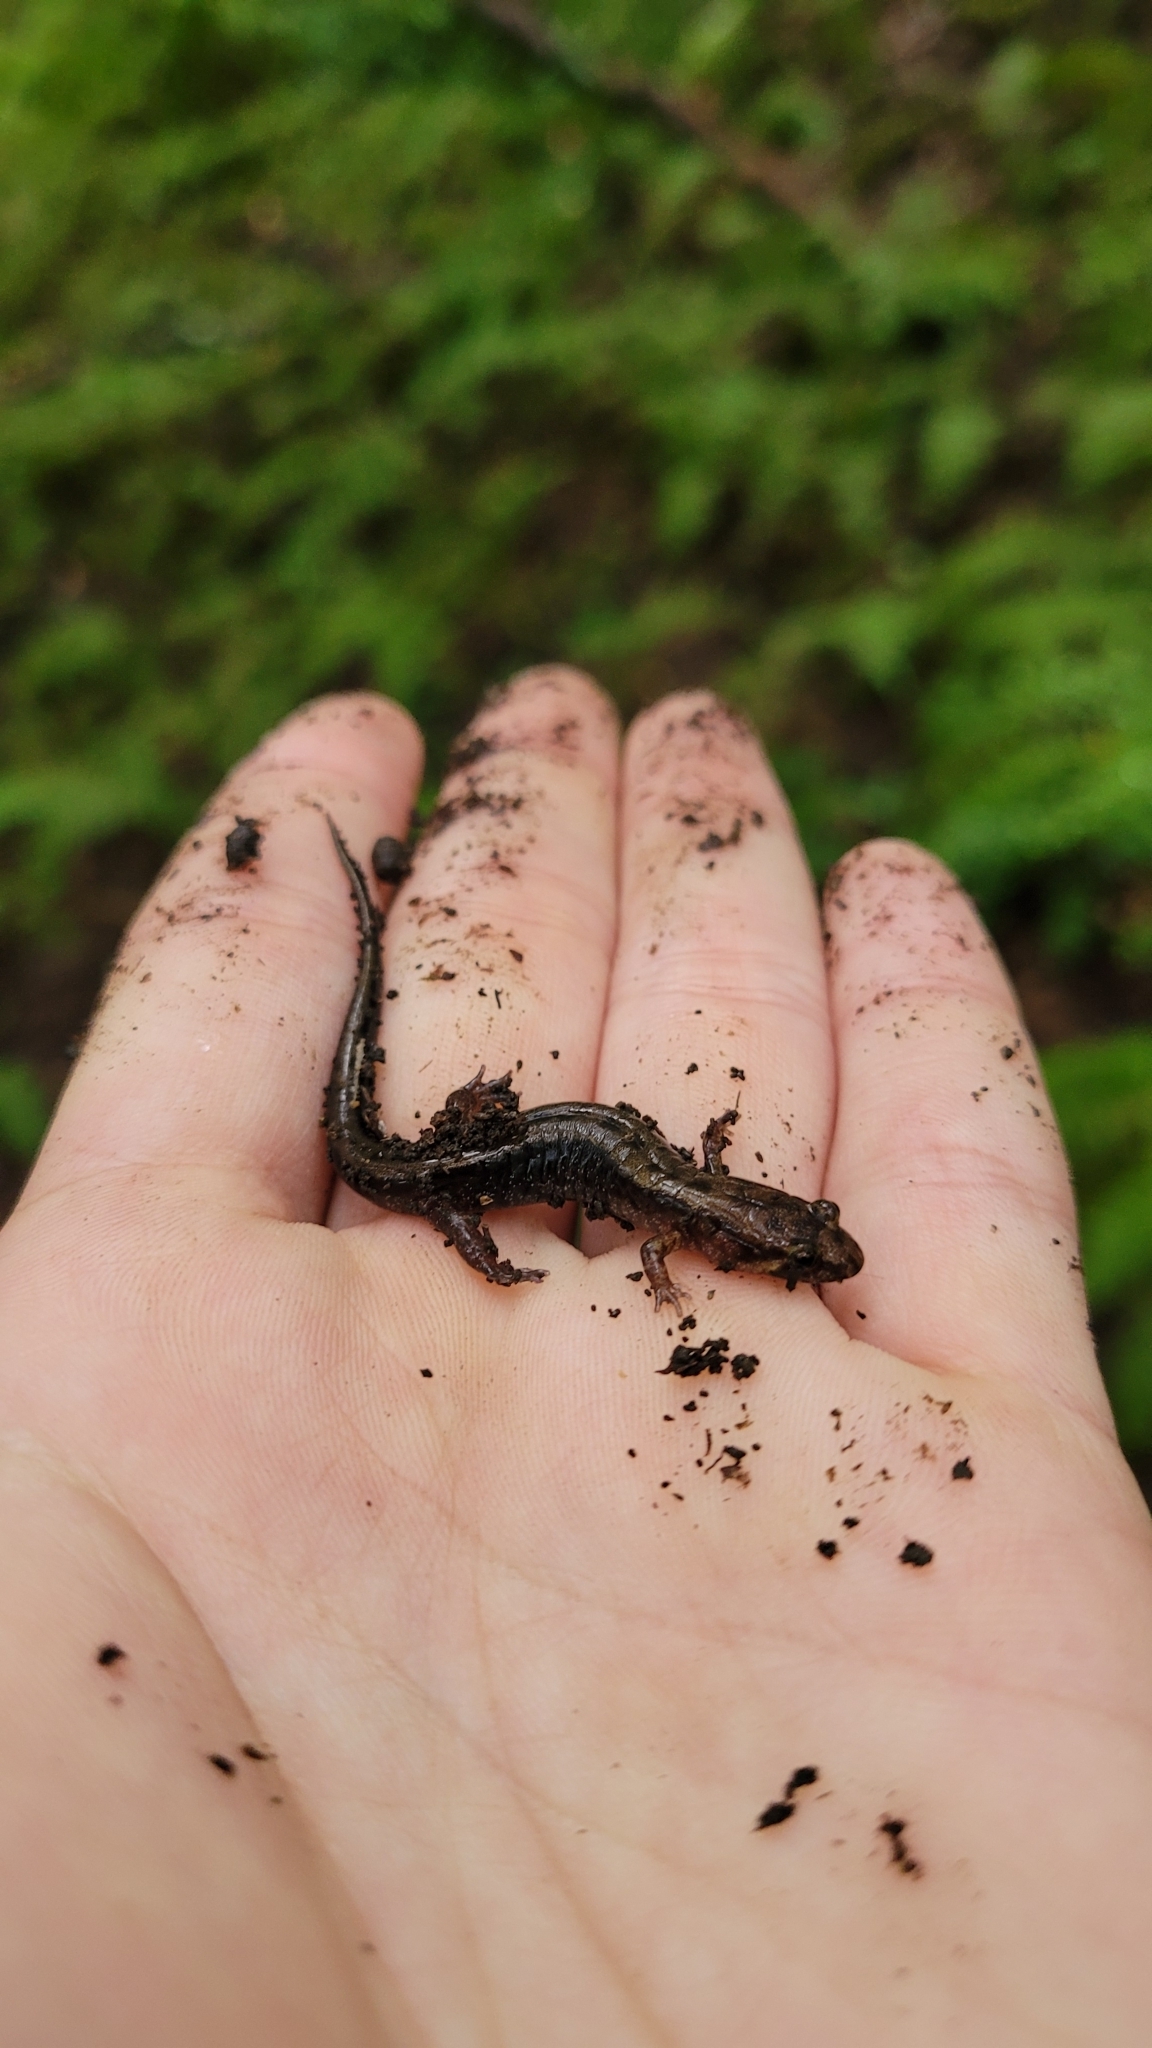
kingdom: Animalia
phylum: Chordata
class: Amphibia
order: Caudata
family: Plethodontidae
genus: Desmognathus
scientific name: Desmognathus ochrophaeus
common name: Allegheny mountain dusky salamander
